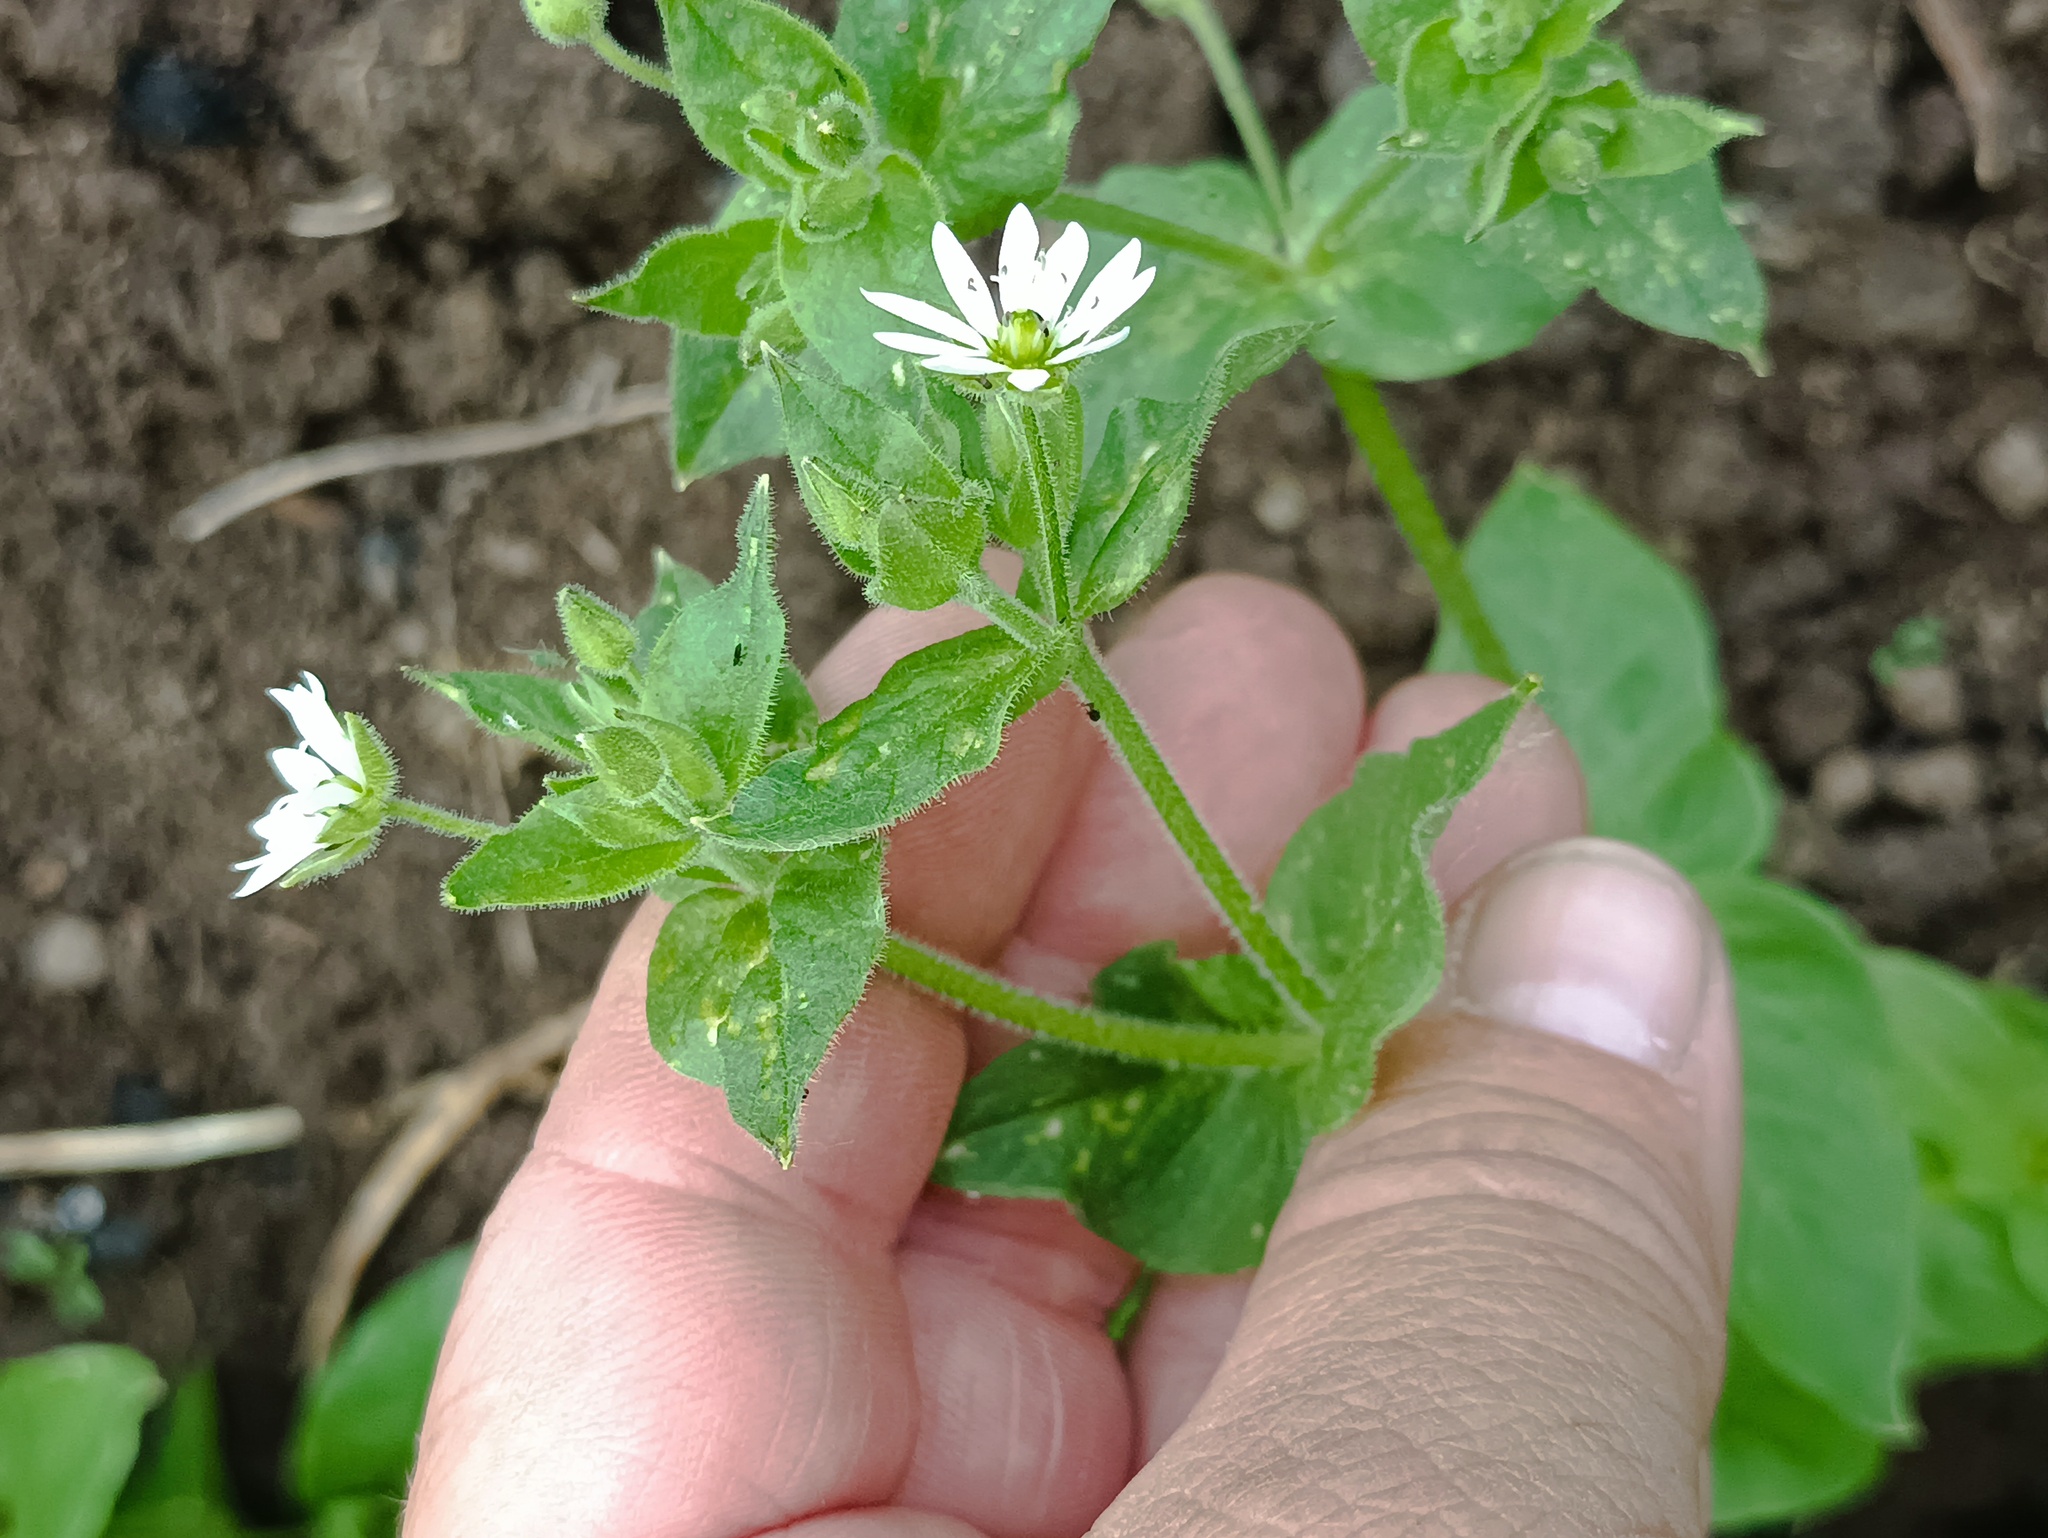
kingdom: Plantae
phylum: Tracheophyta
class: Magnoliopsida
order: Caryophyllales
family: Caryophyllaceae
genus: Stellaria
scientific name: Stellaria aquatica
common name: Water chickweed
